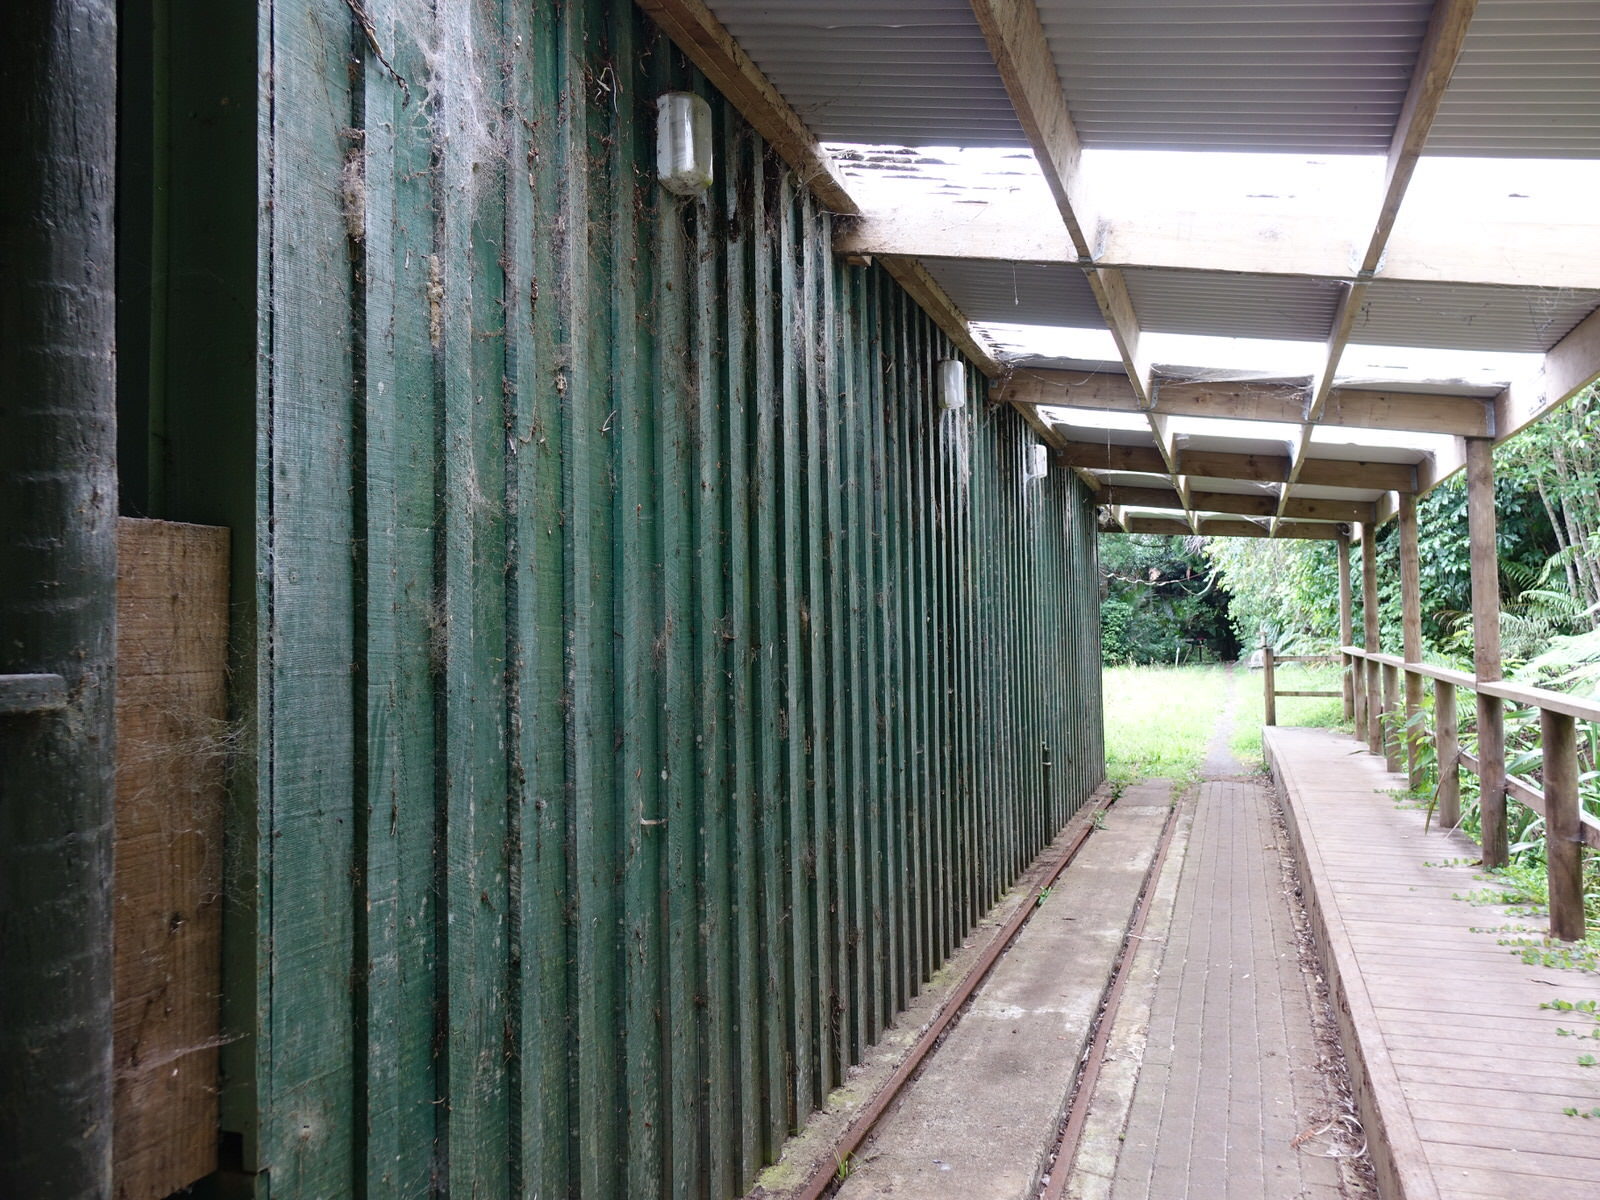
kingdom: Animalia
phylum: Arthropoda
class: Insecta
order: Hymenoptera
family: Crabronidae
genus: Pison
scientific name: Pison spinolae
